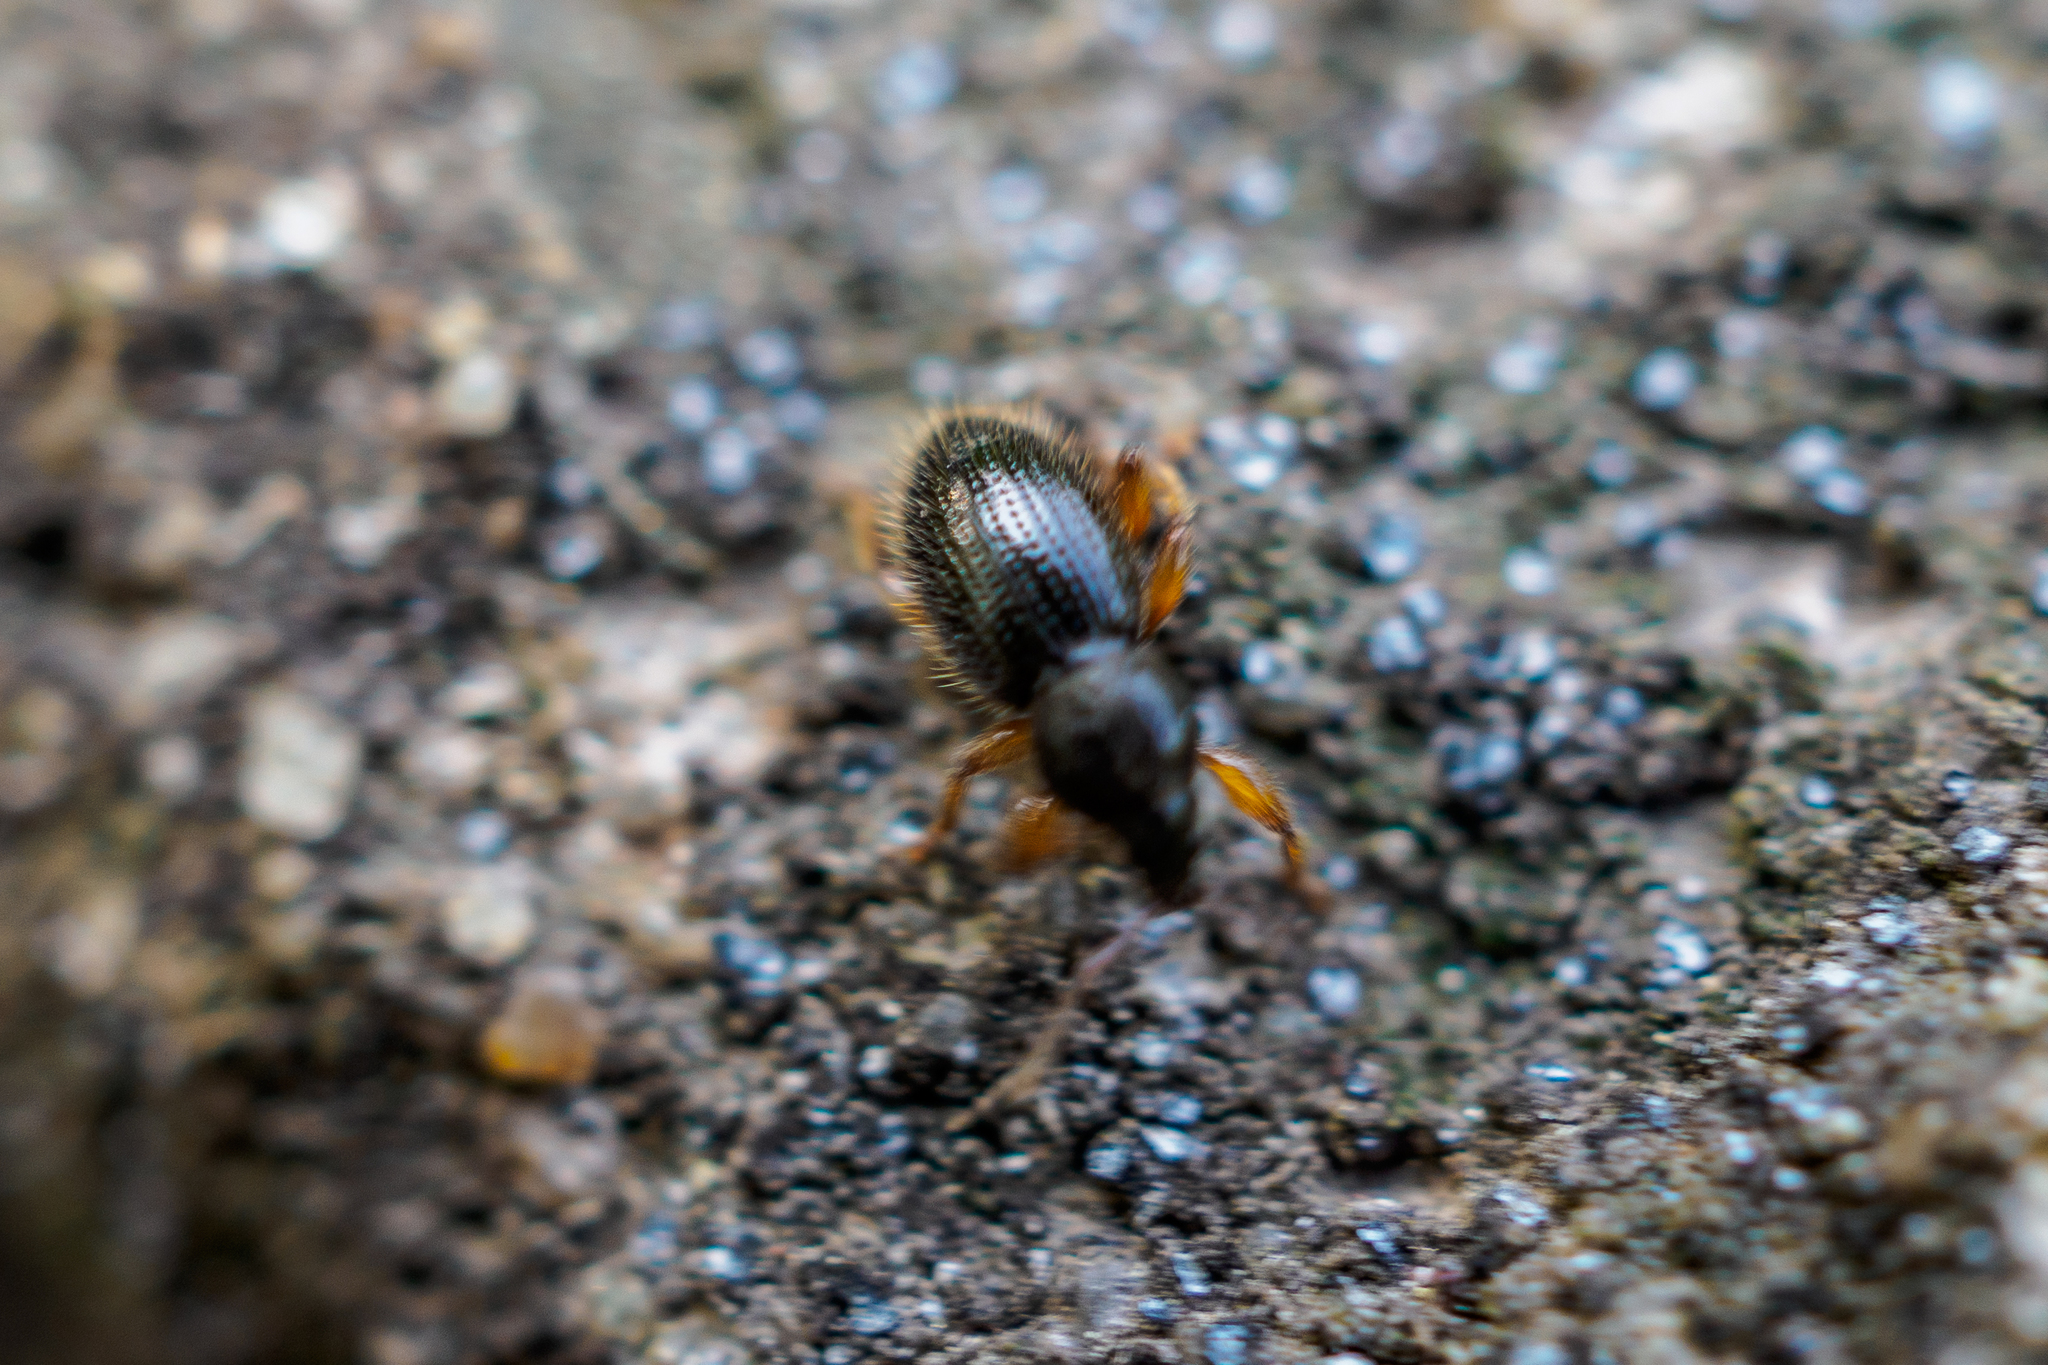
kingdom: Animalia
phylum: Arthropoda
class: Insecta
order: Coleoptera
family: Curculionidae
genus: Exomias
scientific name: Exomias pellucidus
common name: Hairy spider weevil
